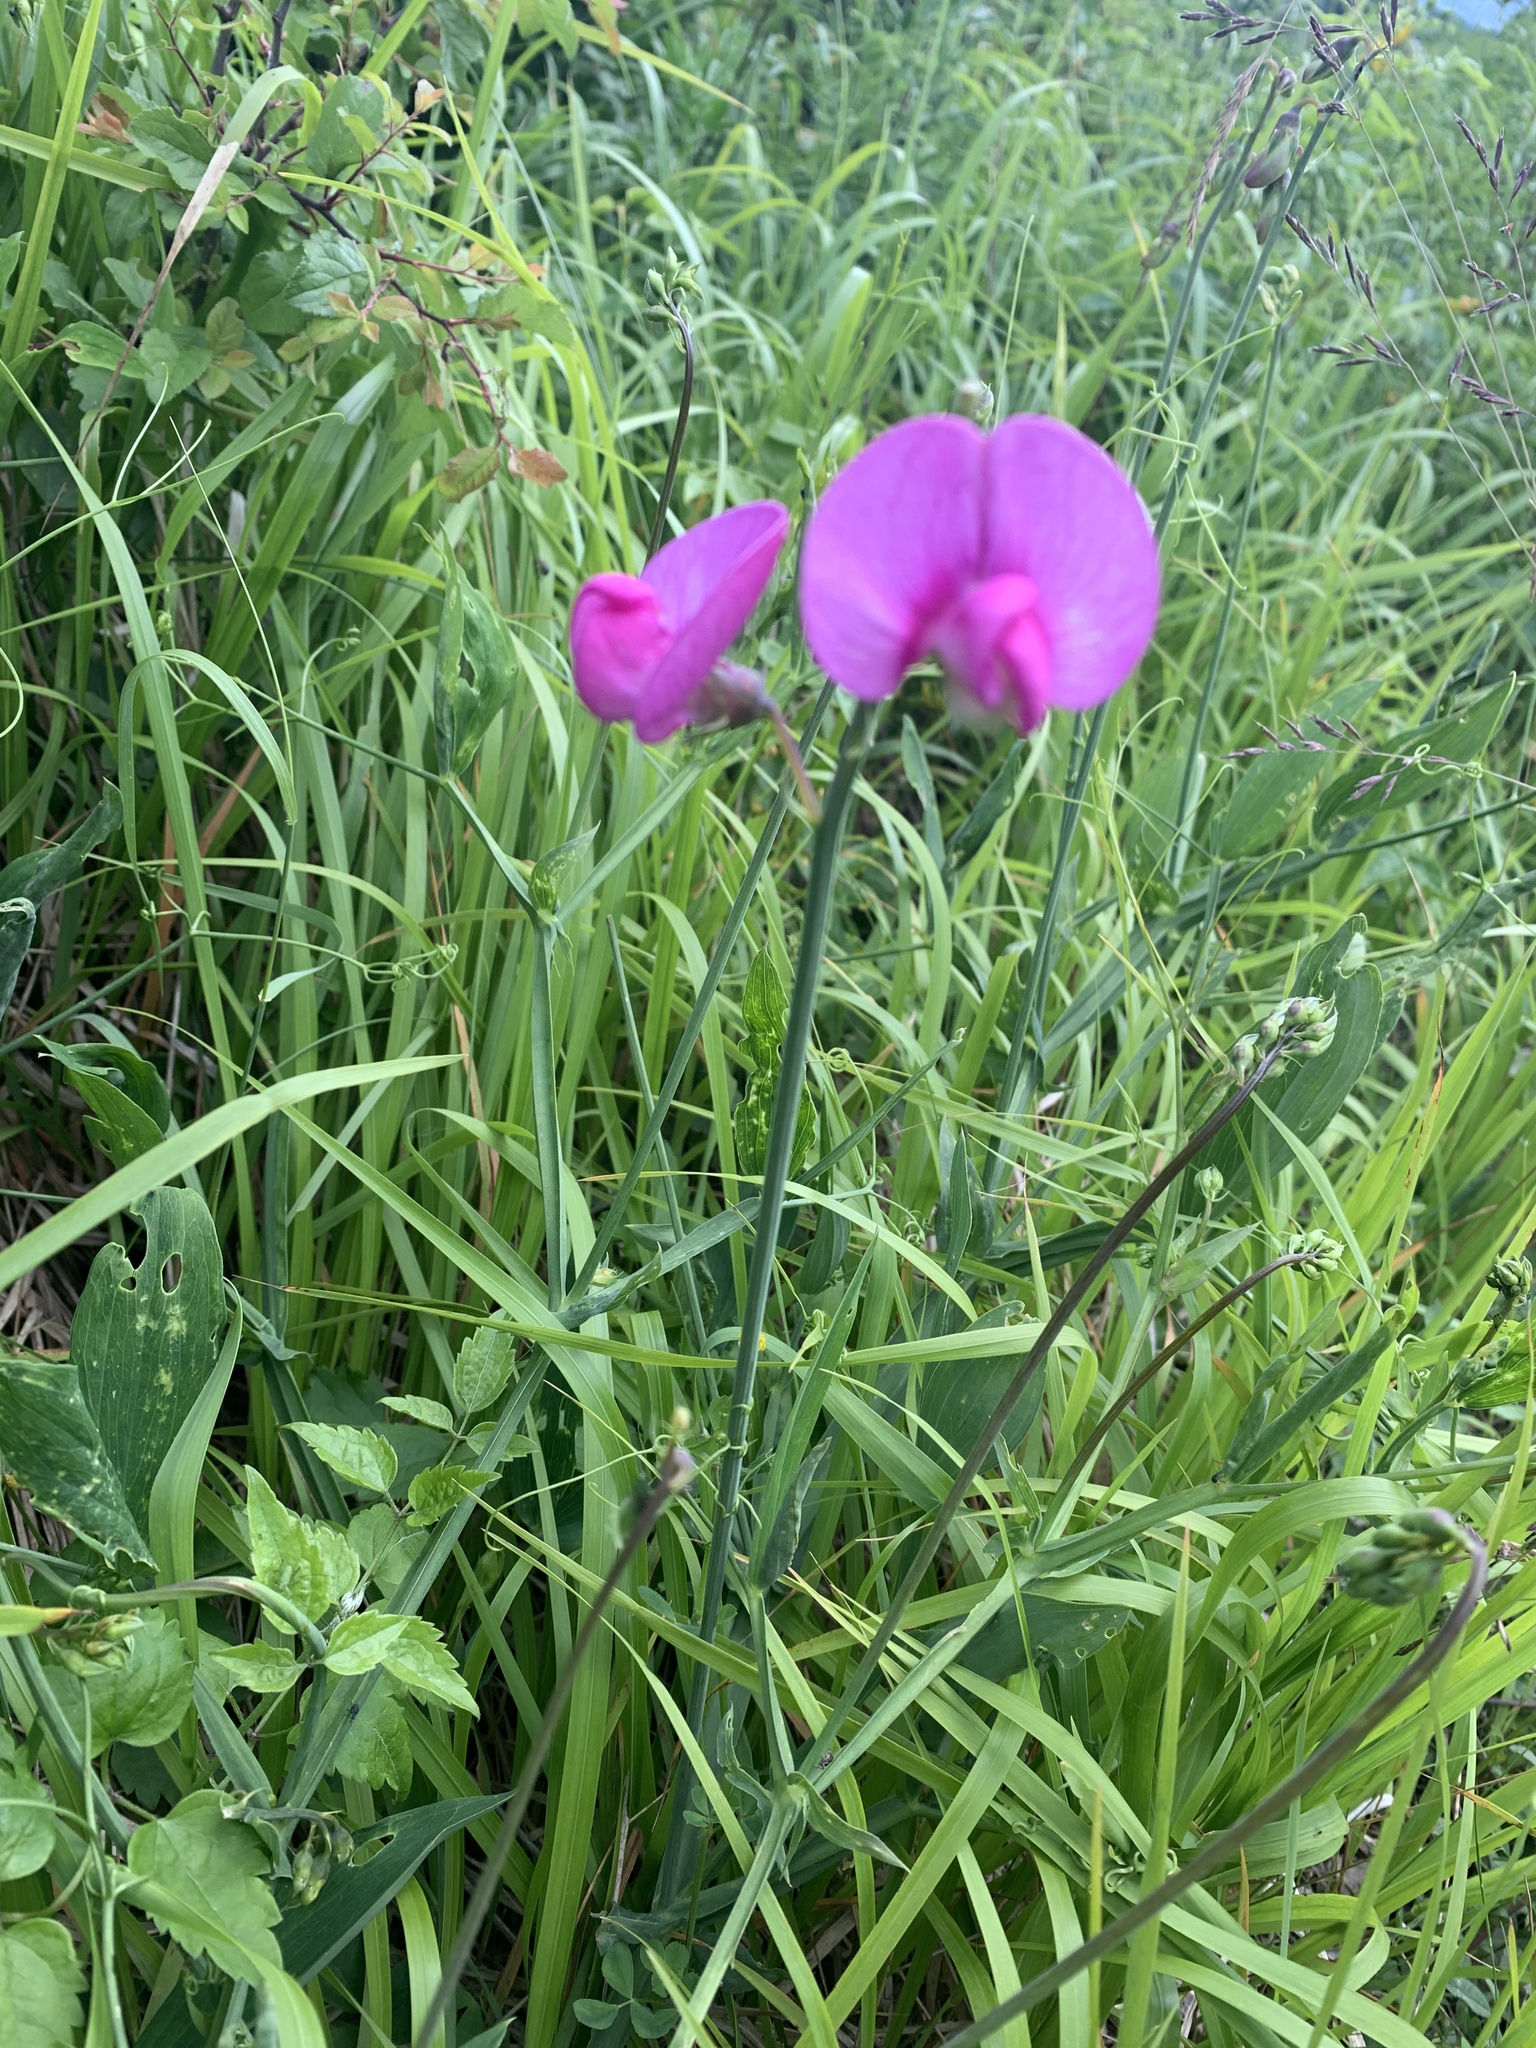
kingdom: Plantae
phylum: Tracheophyta
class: Magnoliopsida
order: Fabales
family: Fabaceae
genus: Lathyrus
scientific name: Lathyrus latifolius
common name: Perennial pea
